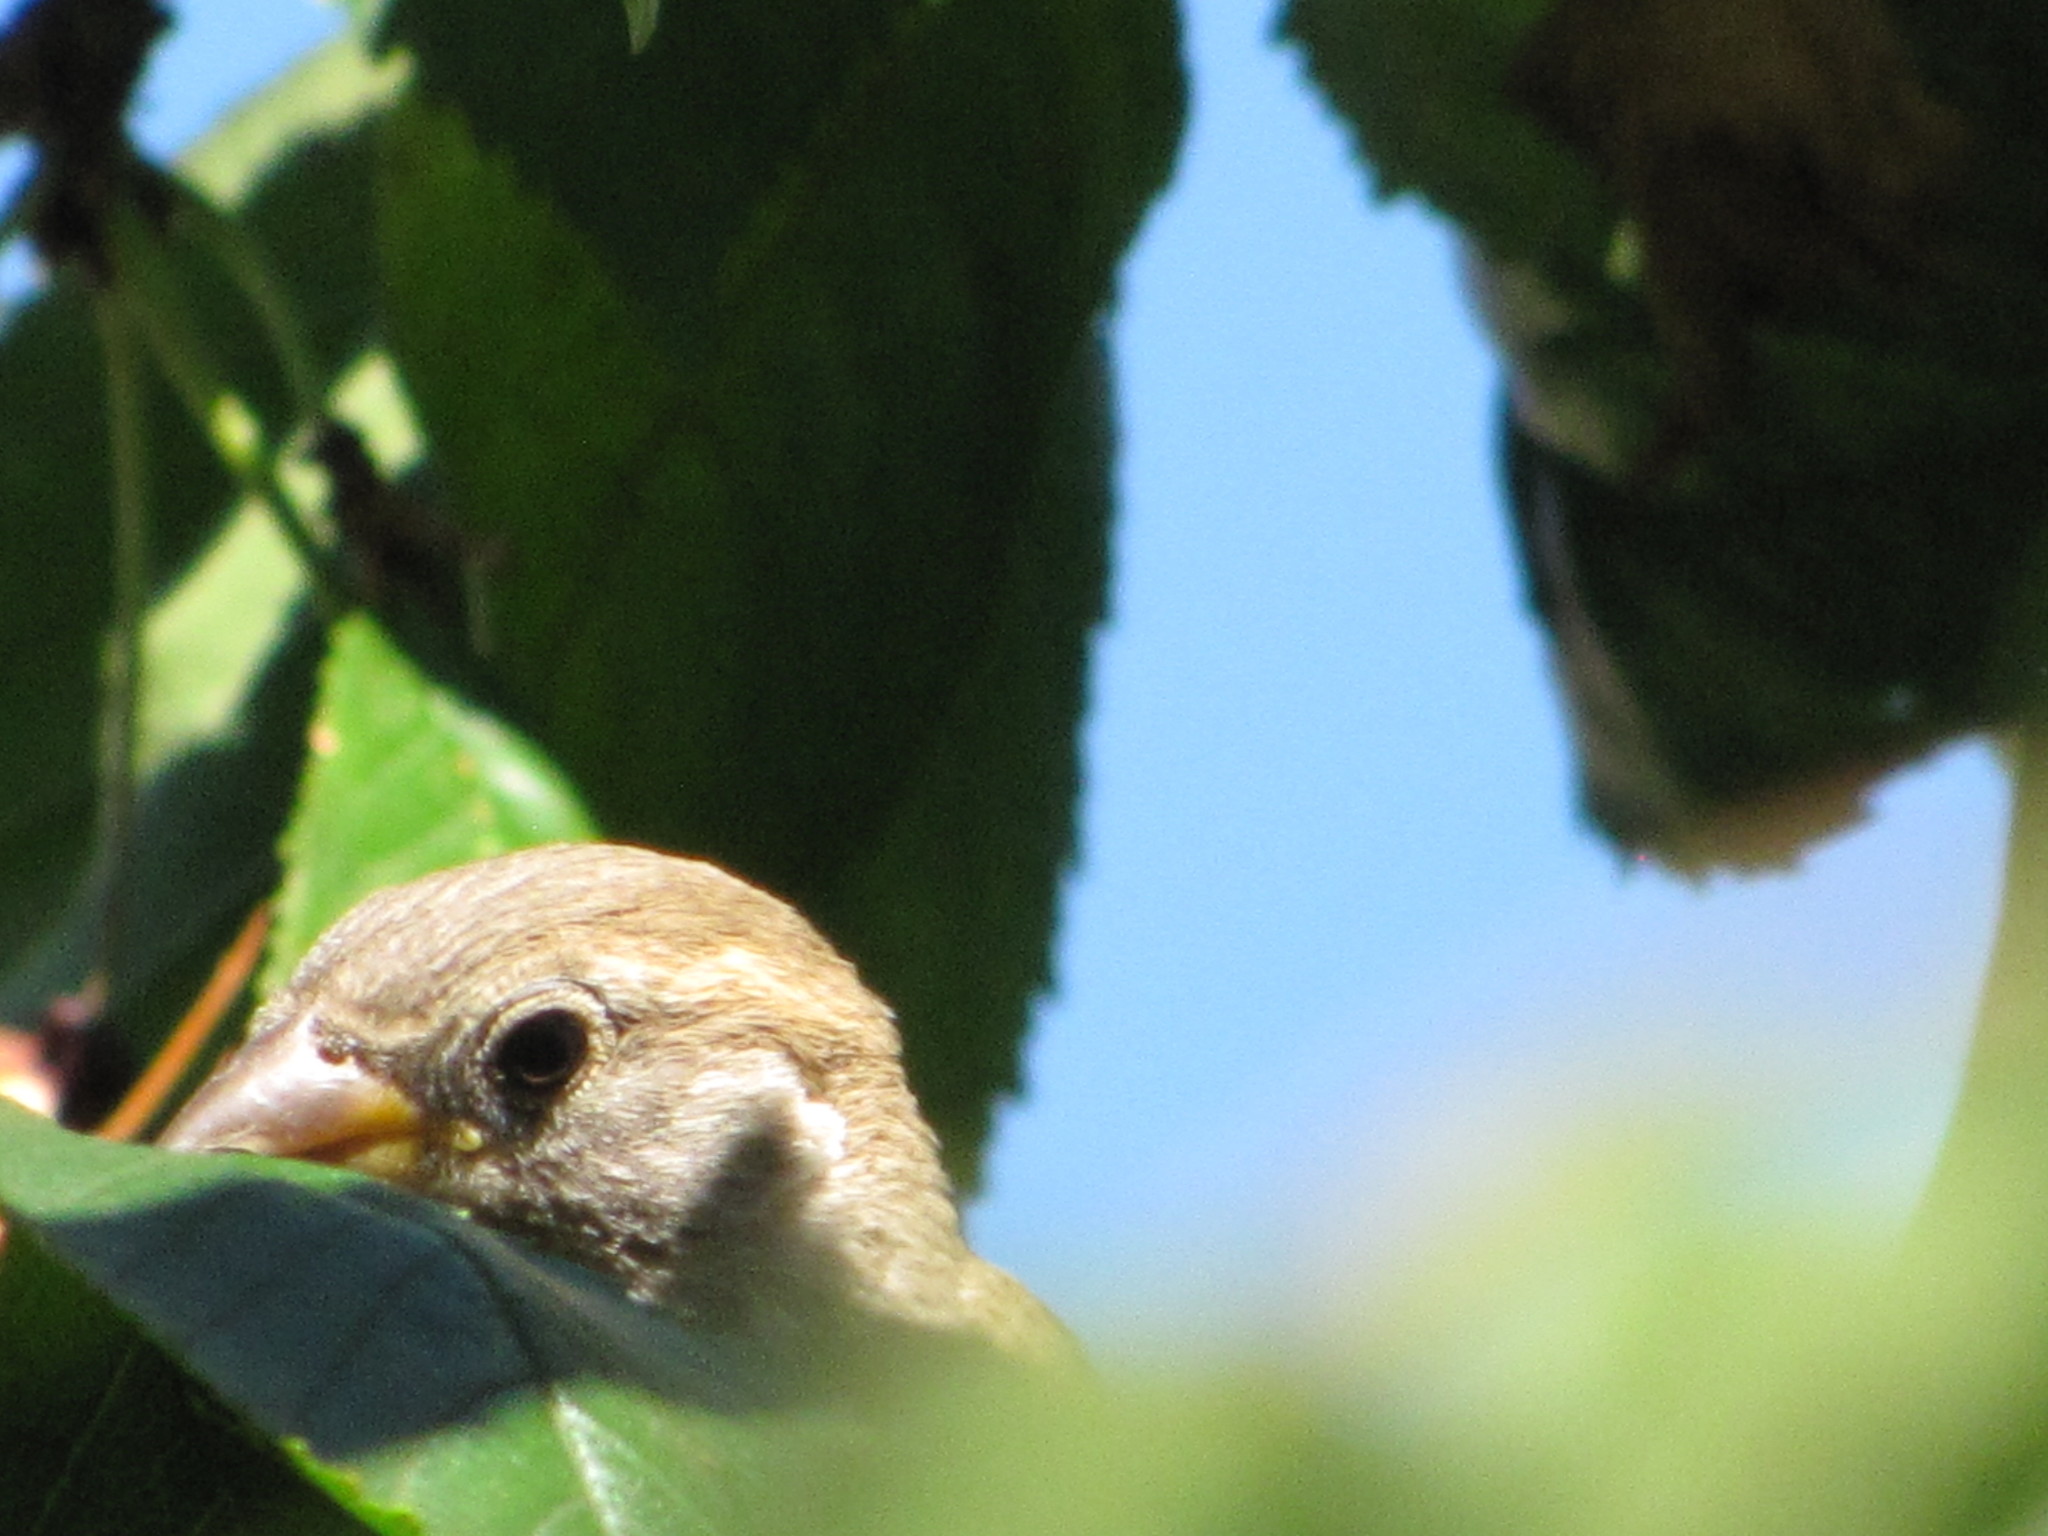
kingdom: Animalia
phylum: Chordata
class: Aves
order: Passeriformes
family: Passeridae
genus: Passer
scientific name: Passer domesticus
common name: House sparrow
